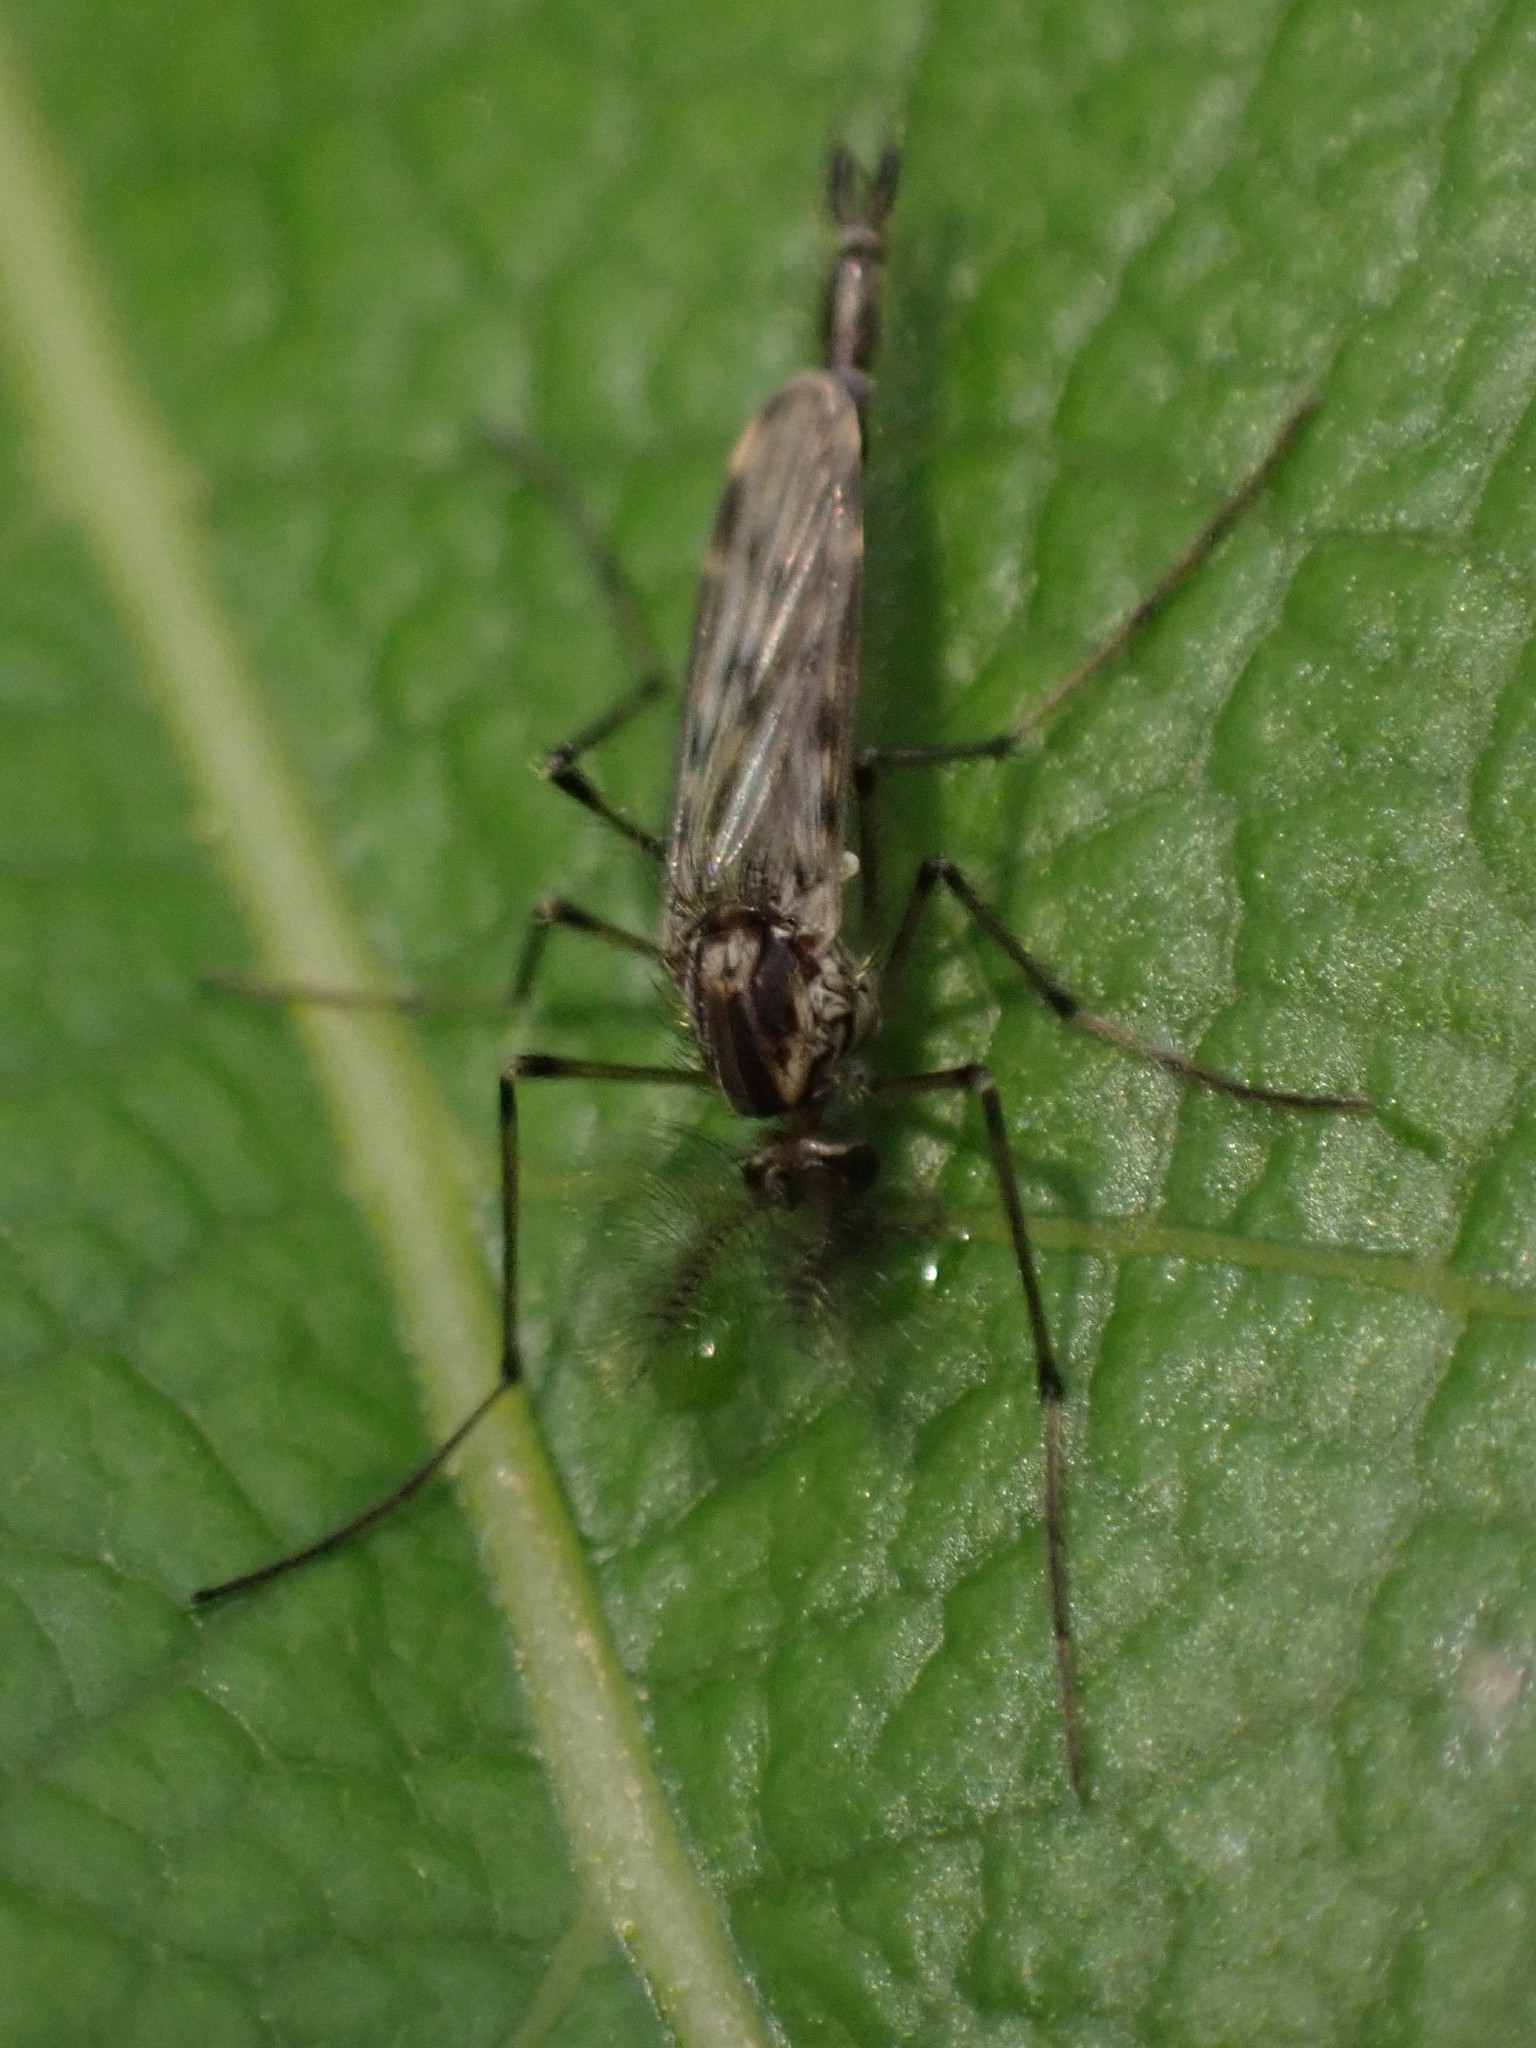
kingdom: Animalia
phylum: Arthropoda
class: Insecta
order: Diptera
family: Chaoboridae
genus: Chaoborus
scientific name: Chaoborus trivittatus
